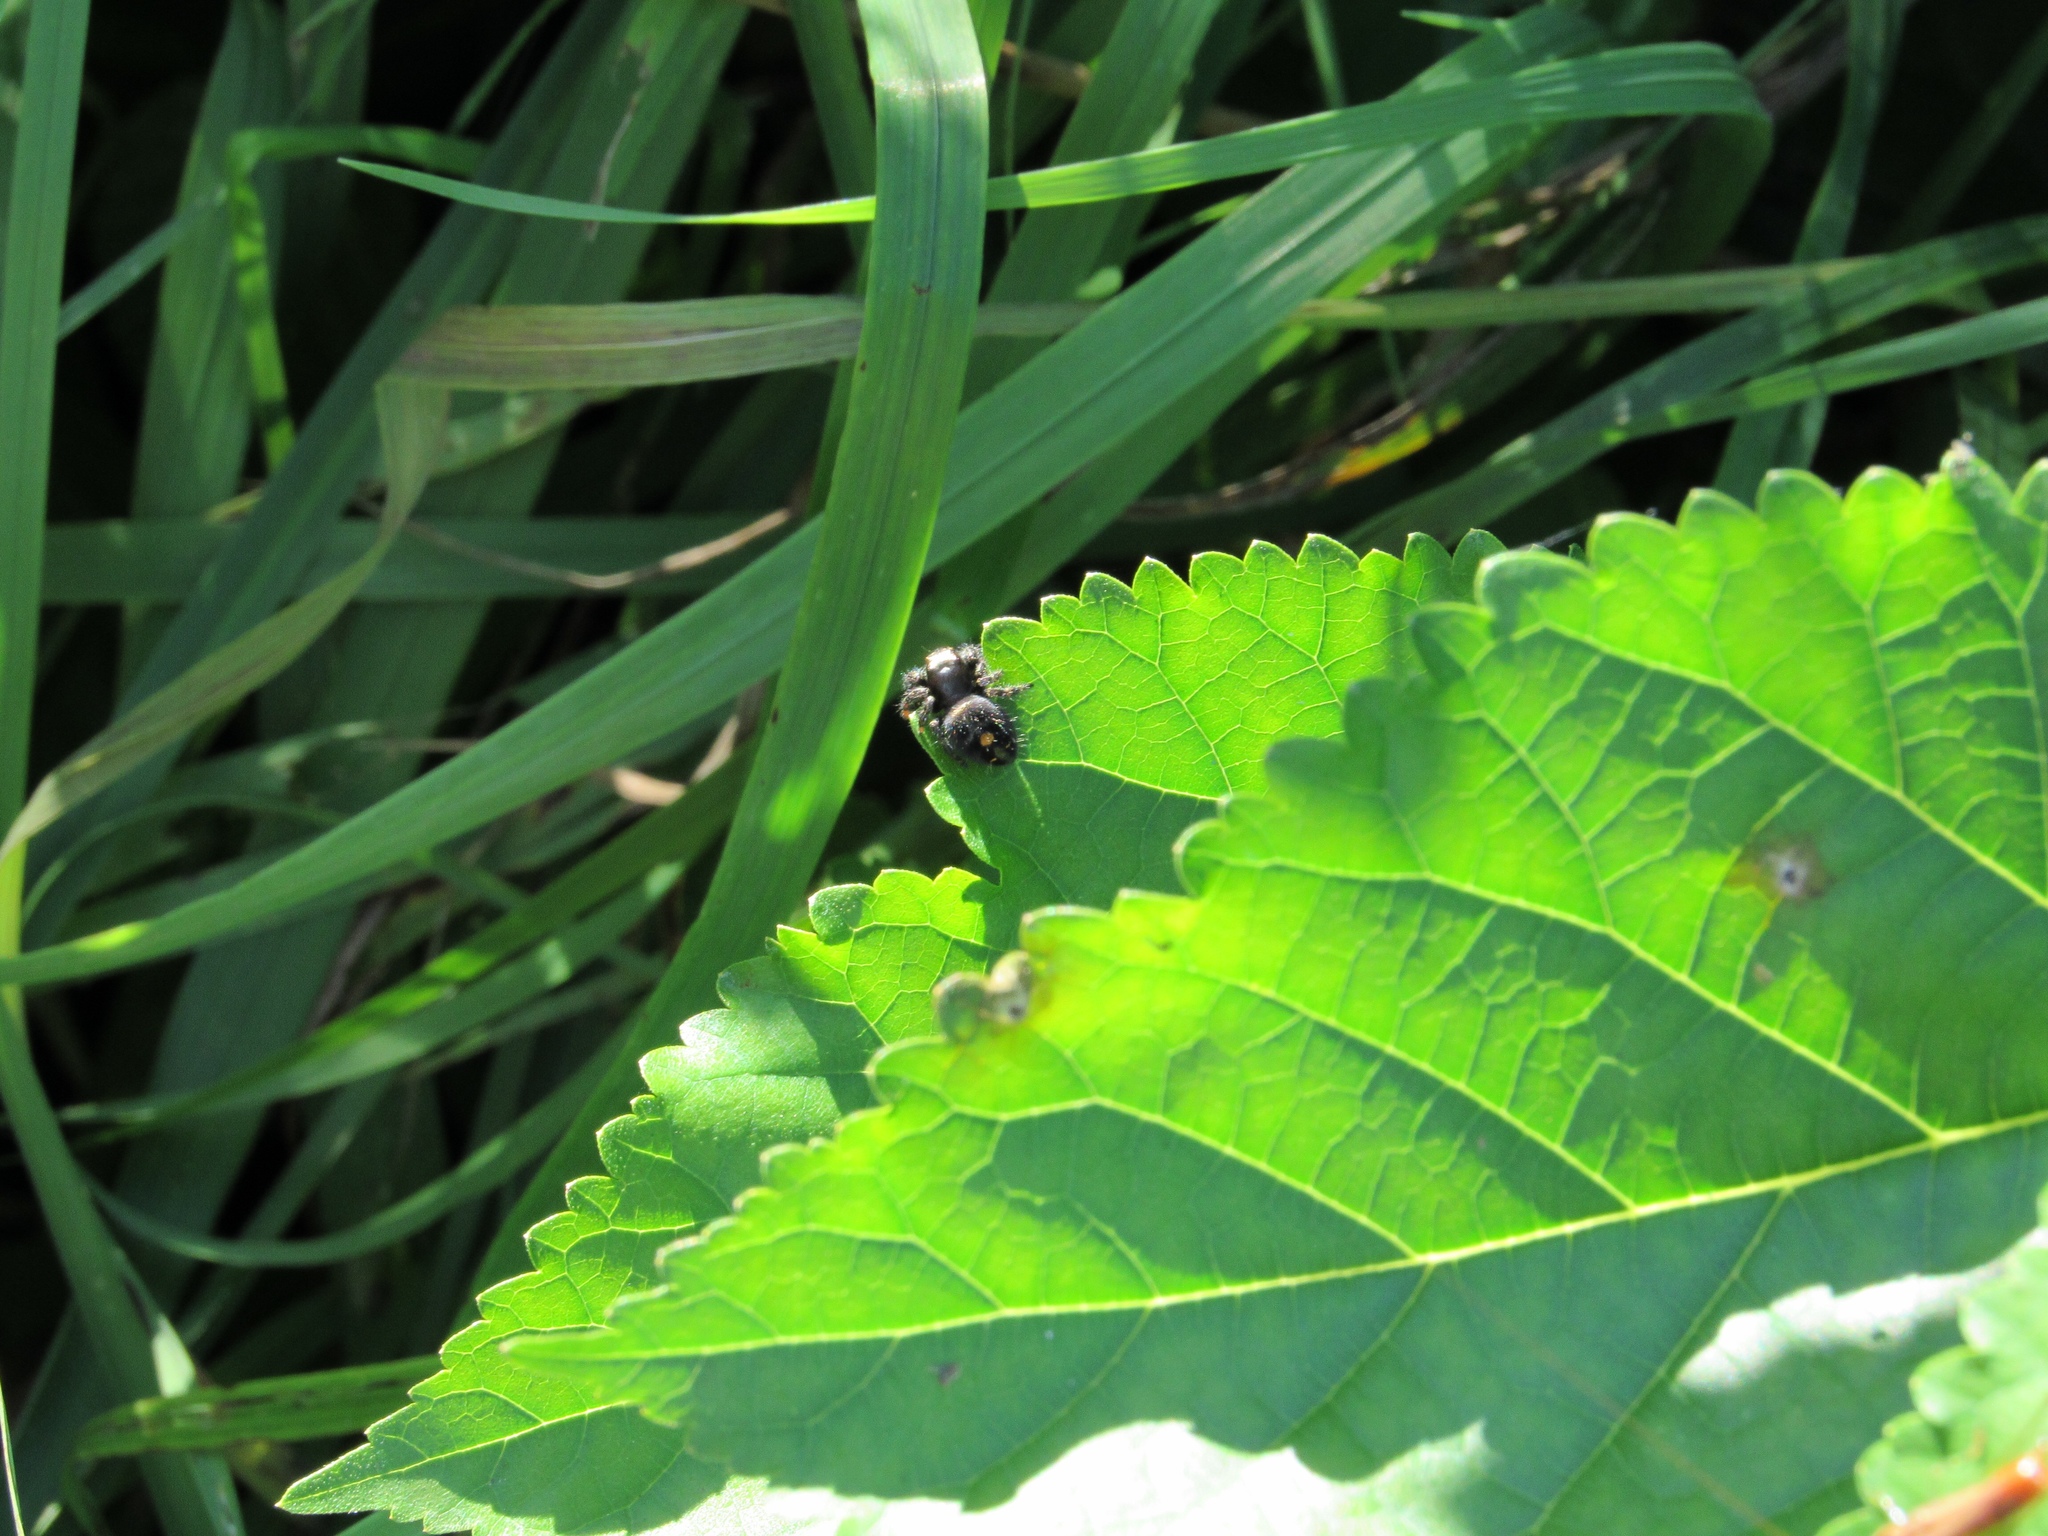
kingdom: Animalia
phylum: Arthropoda
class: Arachnida
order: Araneae
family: Salticidae
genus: Phidippus
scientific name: Phidippus audax
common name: Bold jumper
